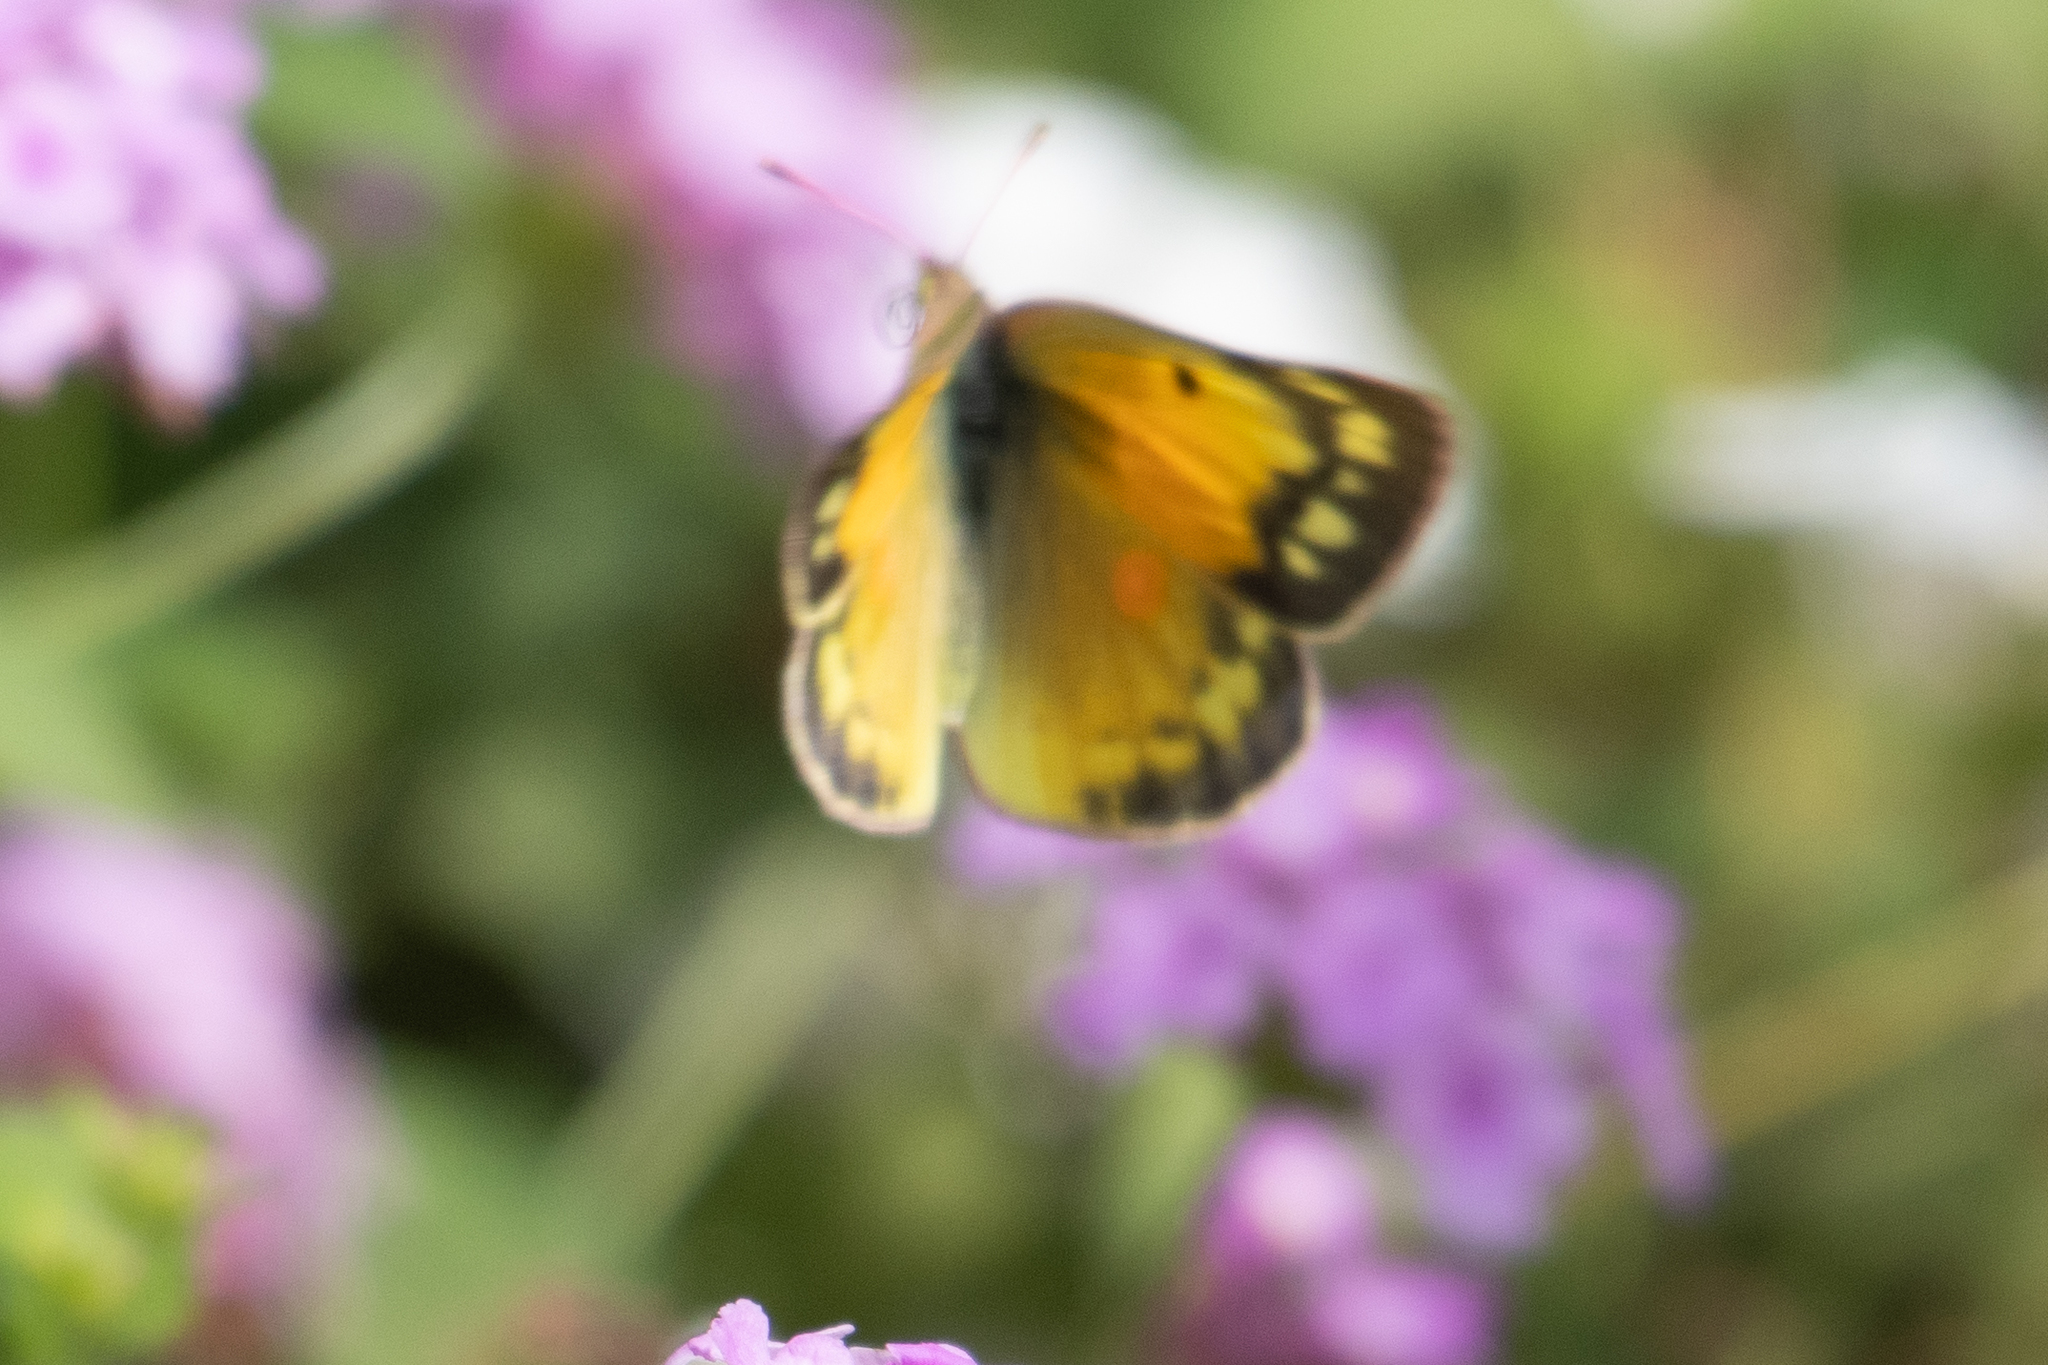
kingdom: Animalia
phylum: Arthropoda
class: Insecta
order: Lepidoptera
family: Pieridae
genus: Colias
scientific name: Colias eurytheme
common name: Alfalfa butterfly
